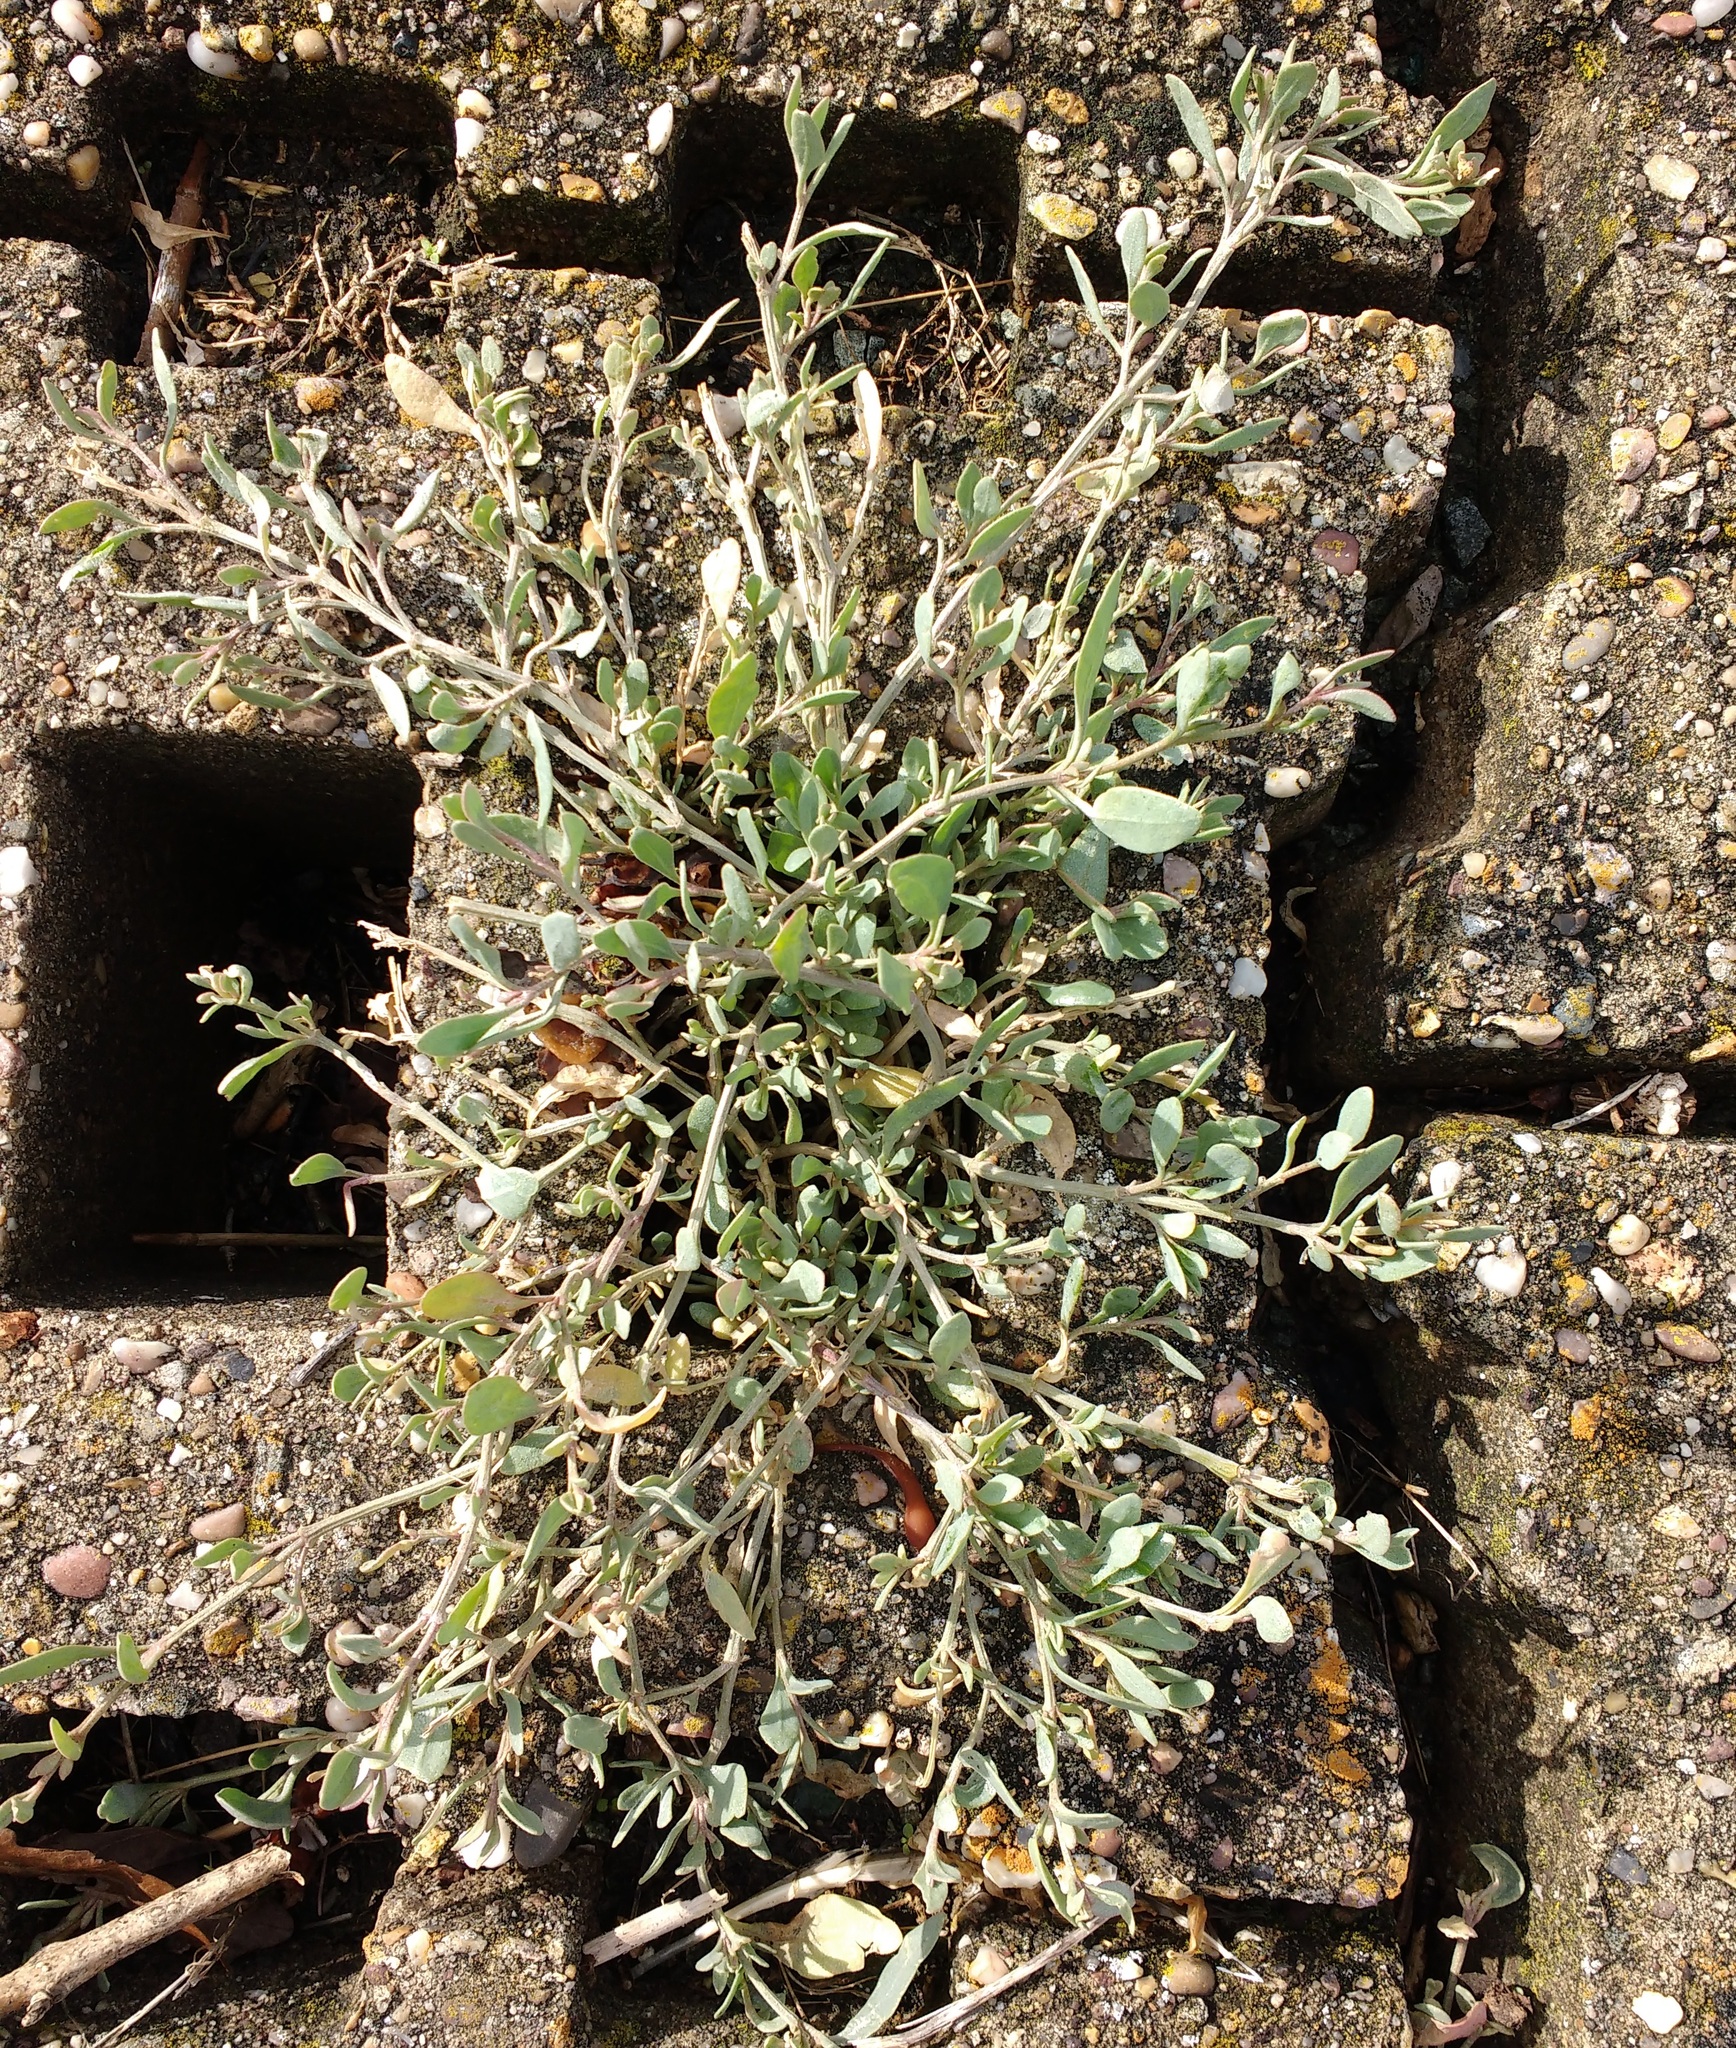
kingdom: Plantae
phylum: Tracheophyta
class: Magnoliopsida
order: Caryophyllales
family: Amaranthaceae
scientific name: Amaranthaceae
